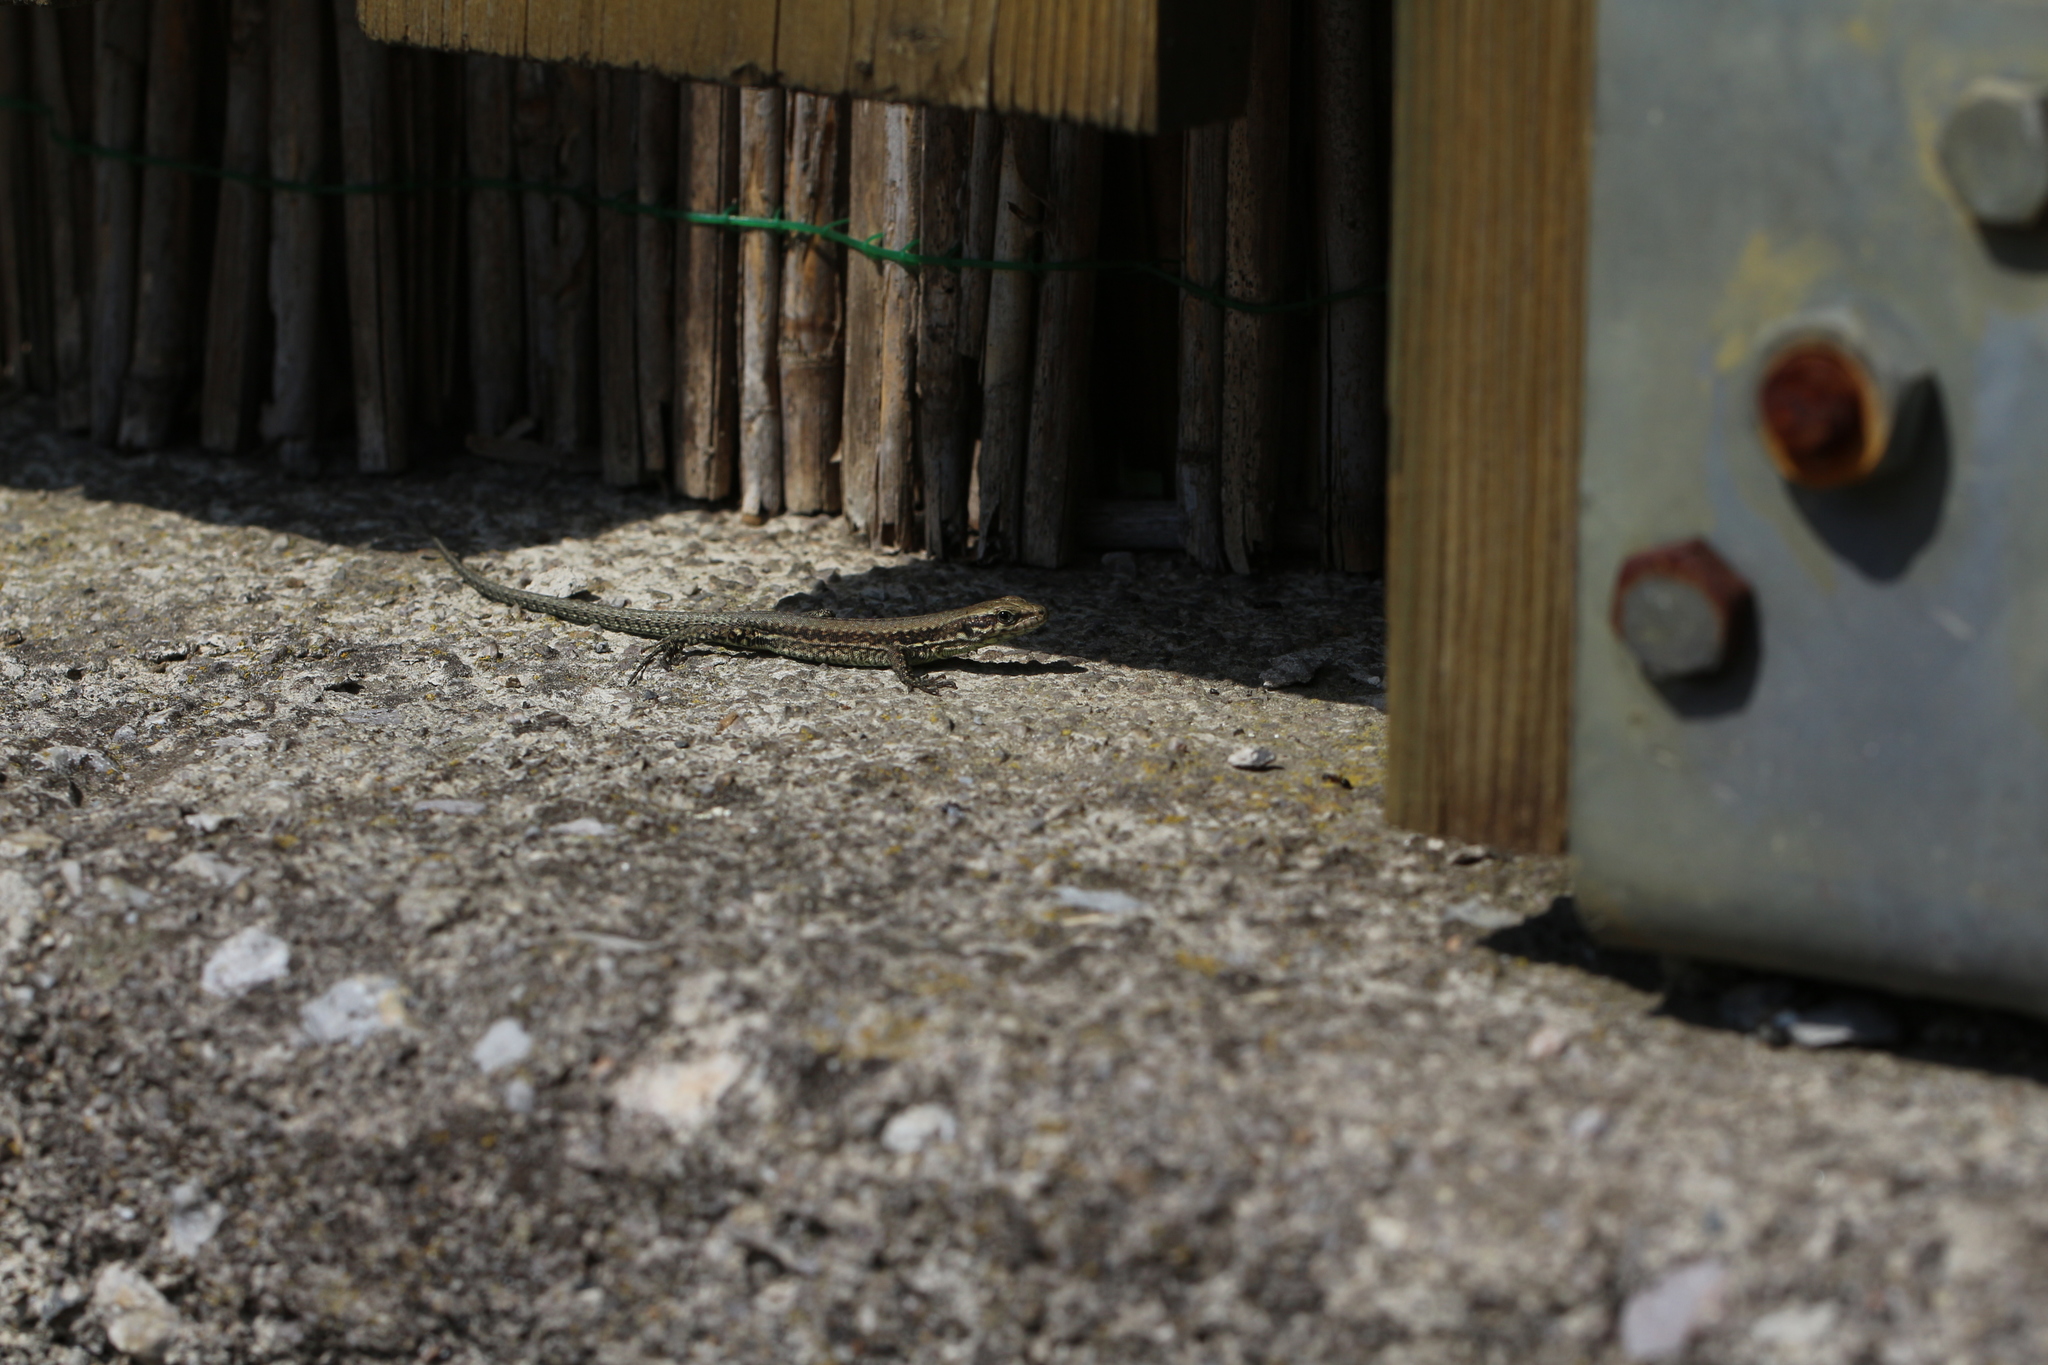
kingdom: Animalia
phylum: Chordata
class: Squamata
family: Lacertidae
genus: Podarcis
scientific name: Podarcis muralis
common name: Common wall lizard
